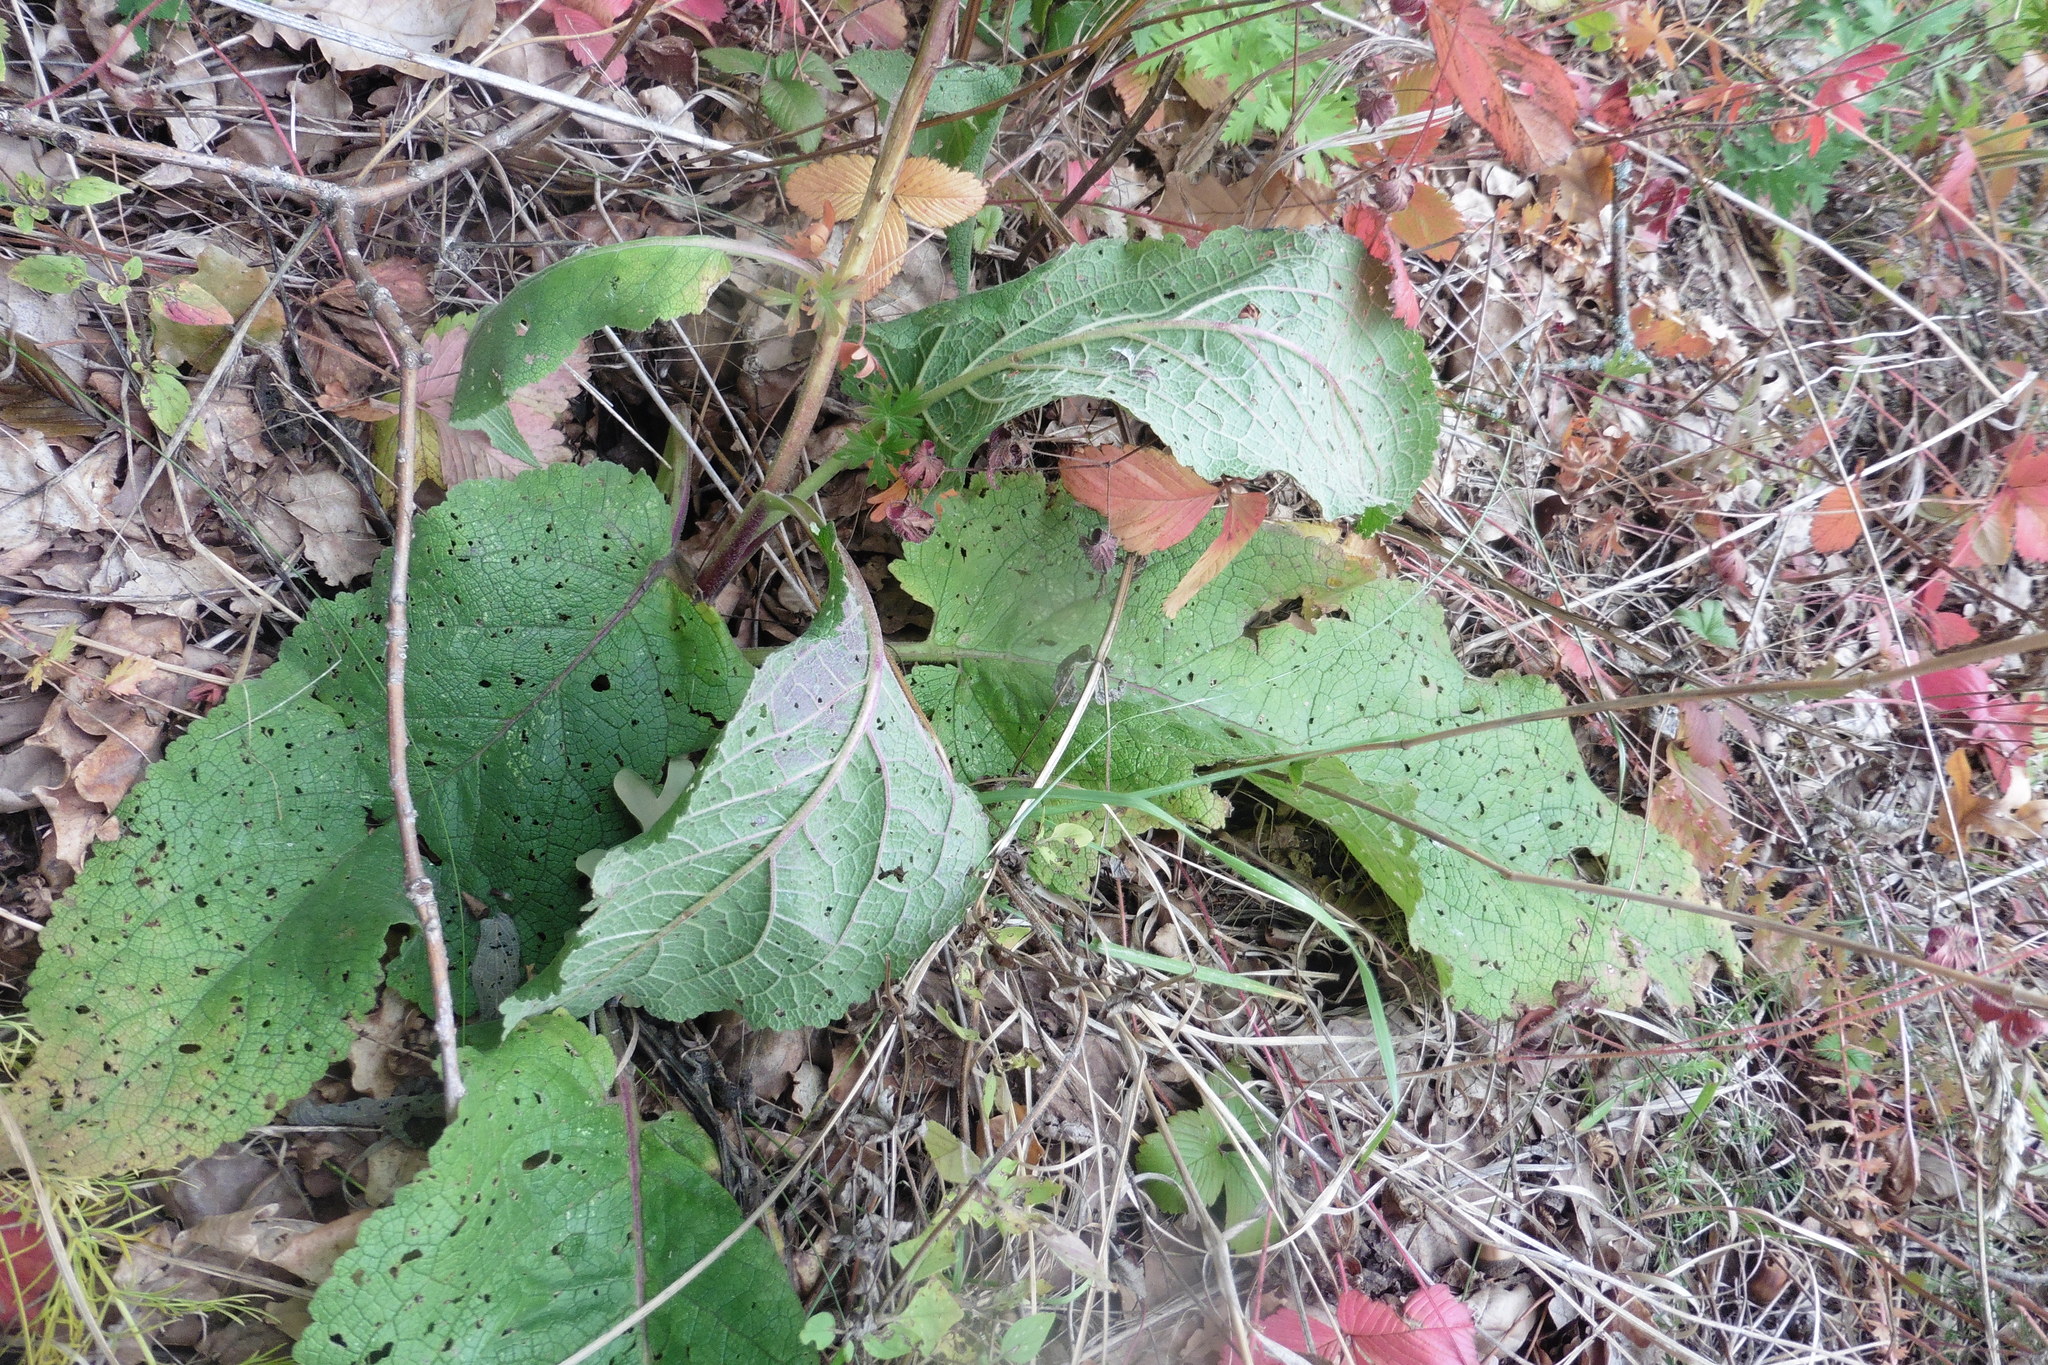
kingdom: Plantae
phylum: Tracheophyta
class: Magnoliopsida
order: Lamiales
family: Scrophulariaceae
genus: Verbascum
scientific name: Verbascum nigrum
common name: Dark mullein
